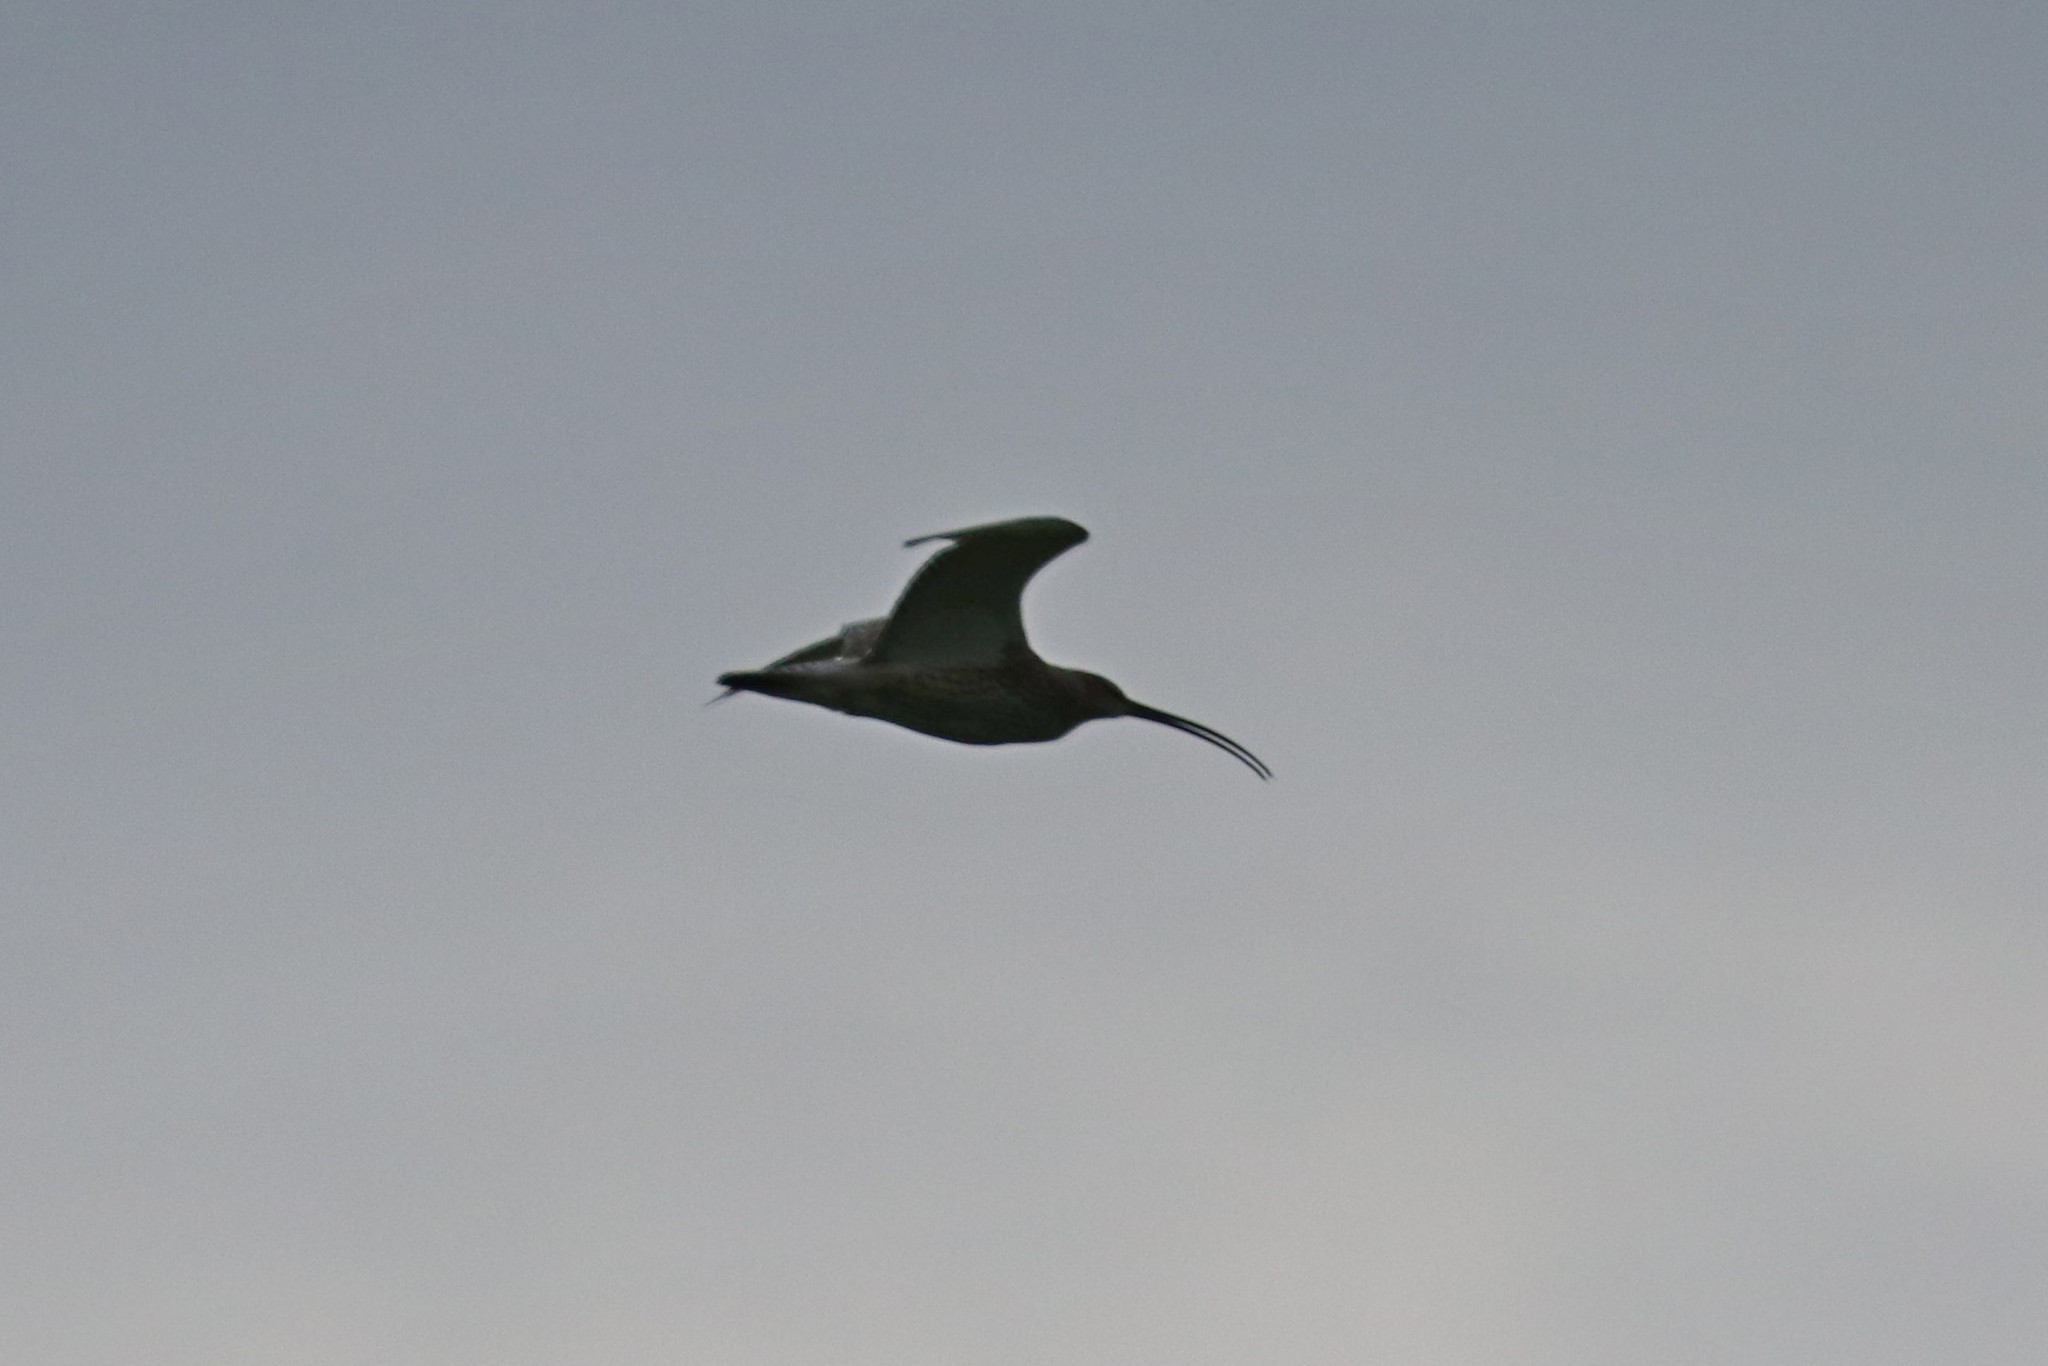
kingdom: Animalia
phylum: Chordata
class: Aves
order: Charadriiformes
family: Scolopacidae
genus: Numenius
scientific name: Numenius arquata
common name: Eurasian curlew
